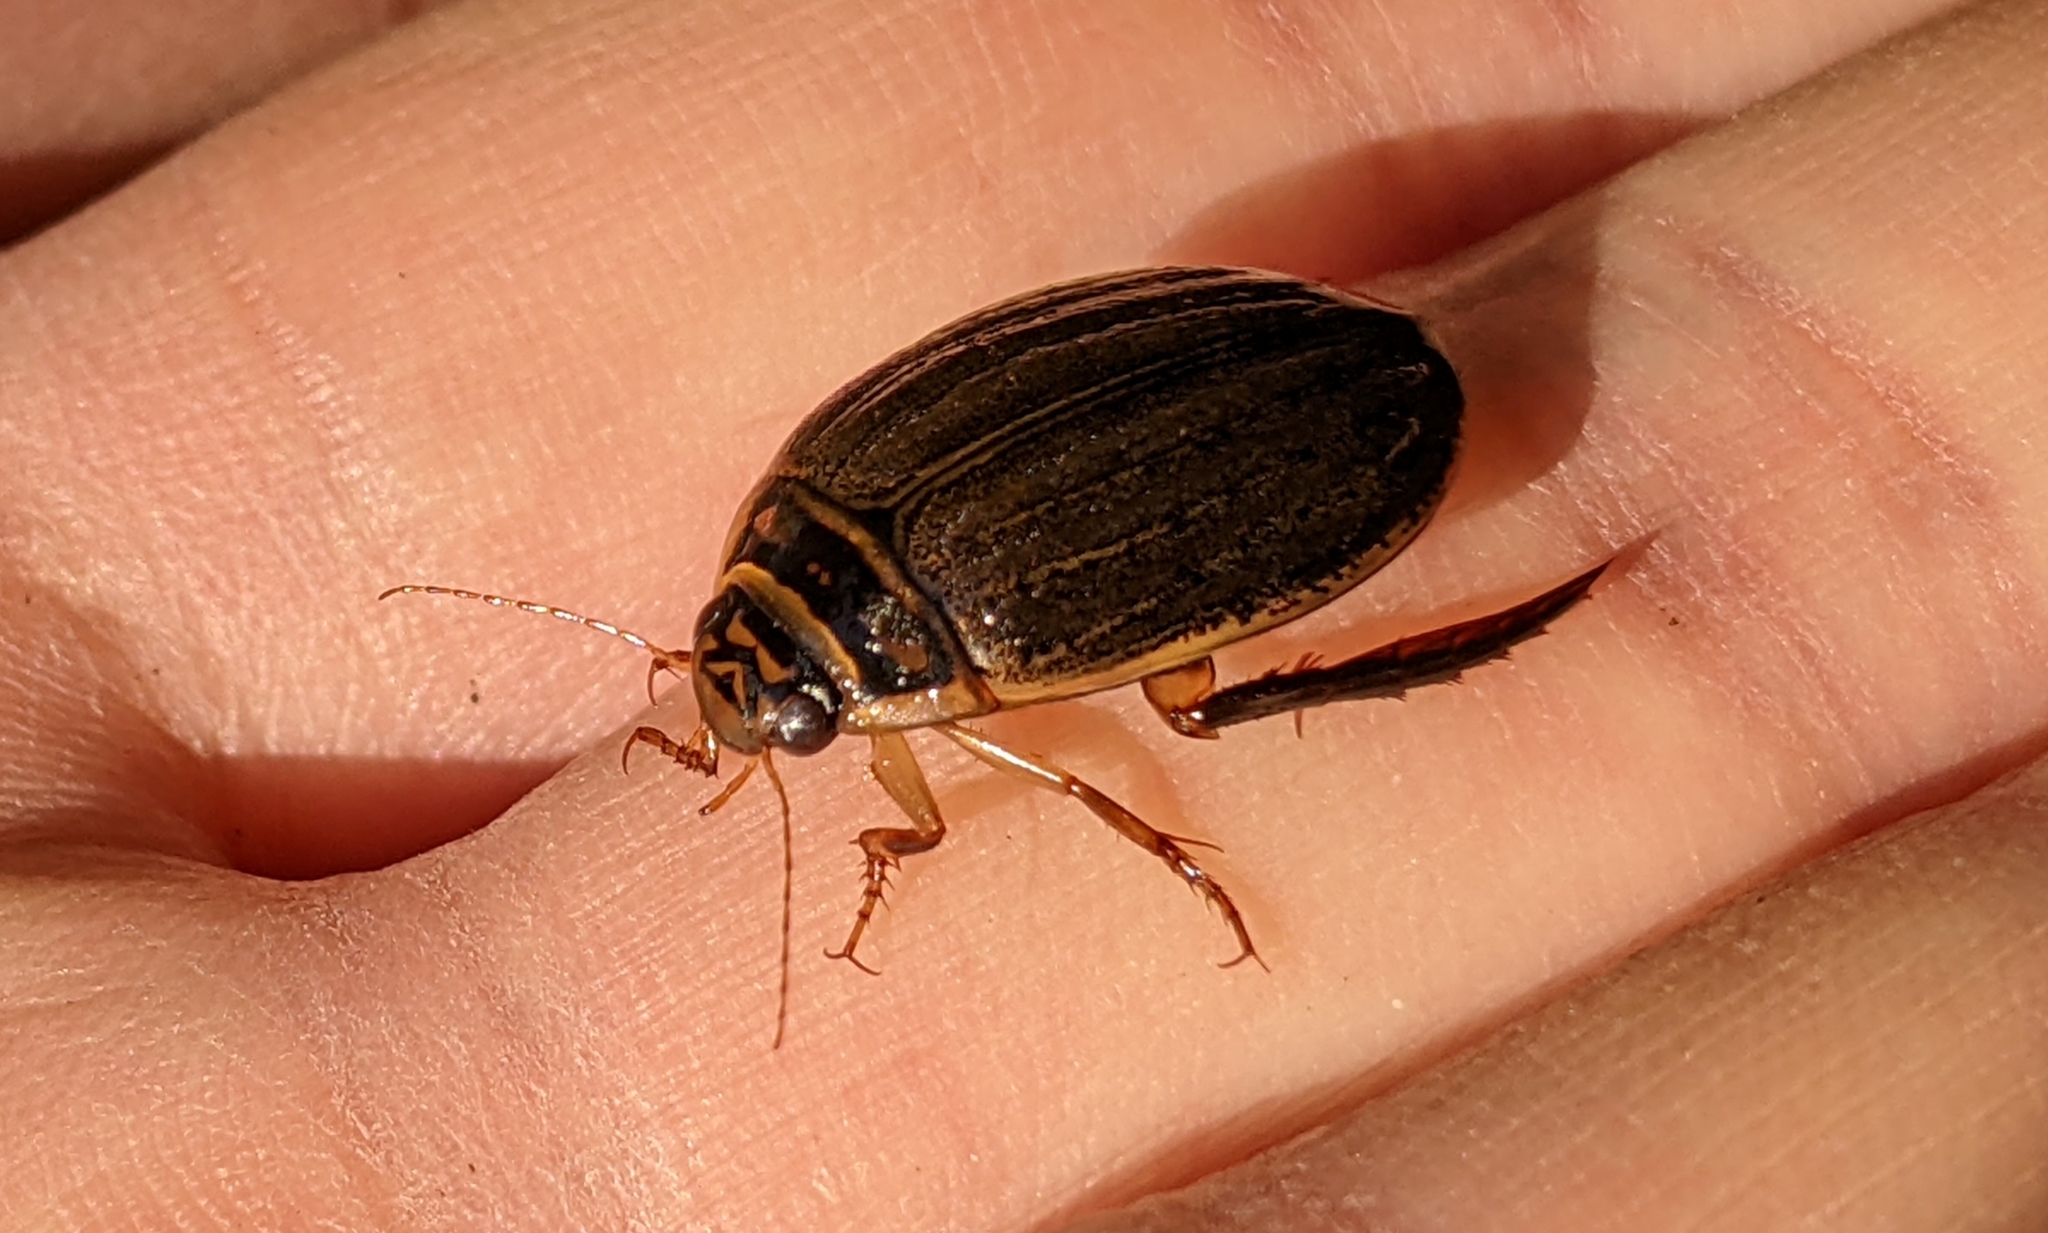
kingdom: Animalia
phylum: Arthropoda
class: Insecta
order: Coleoptera
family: Dytiscidae
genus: Acilius
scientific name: Acilius sulcatus
